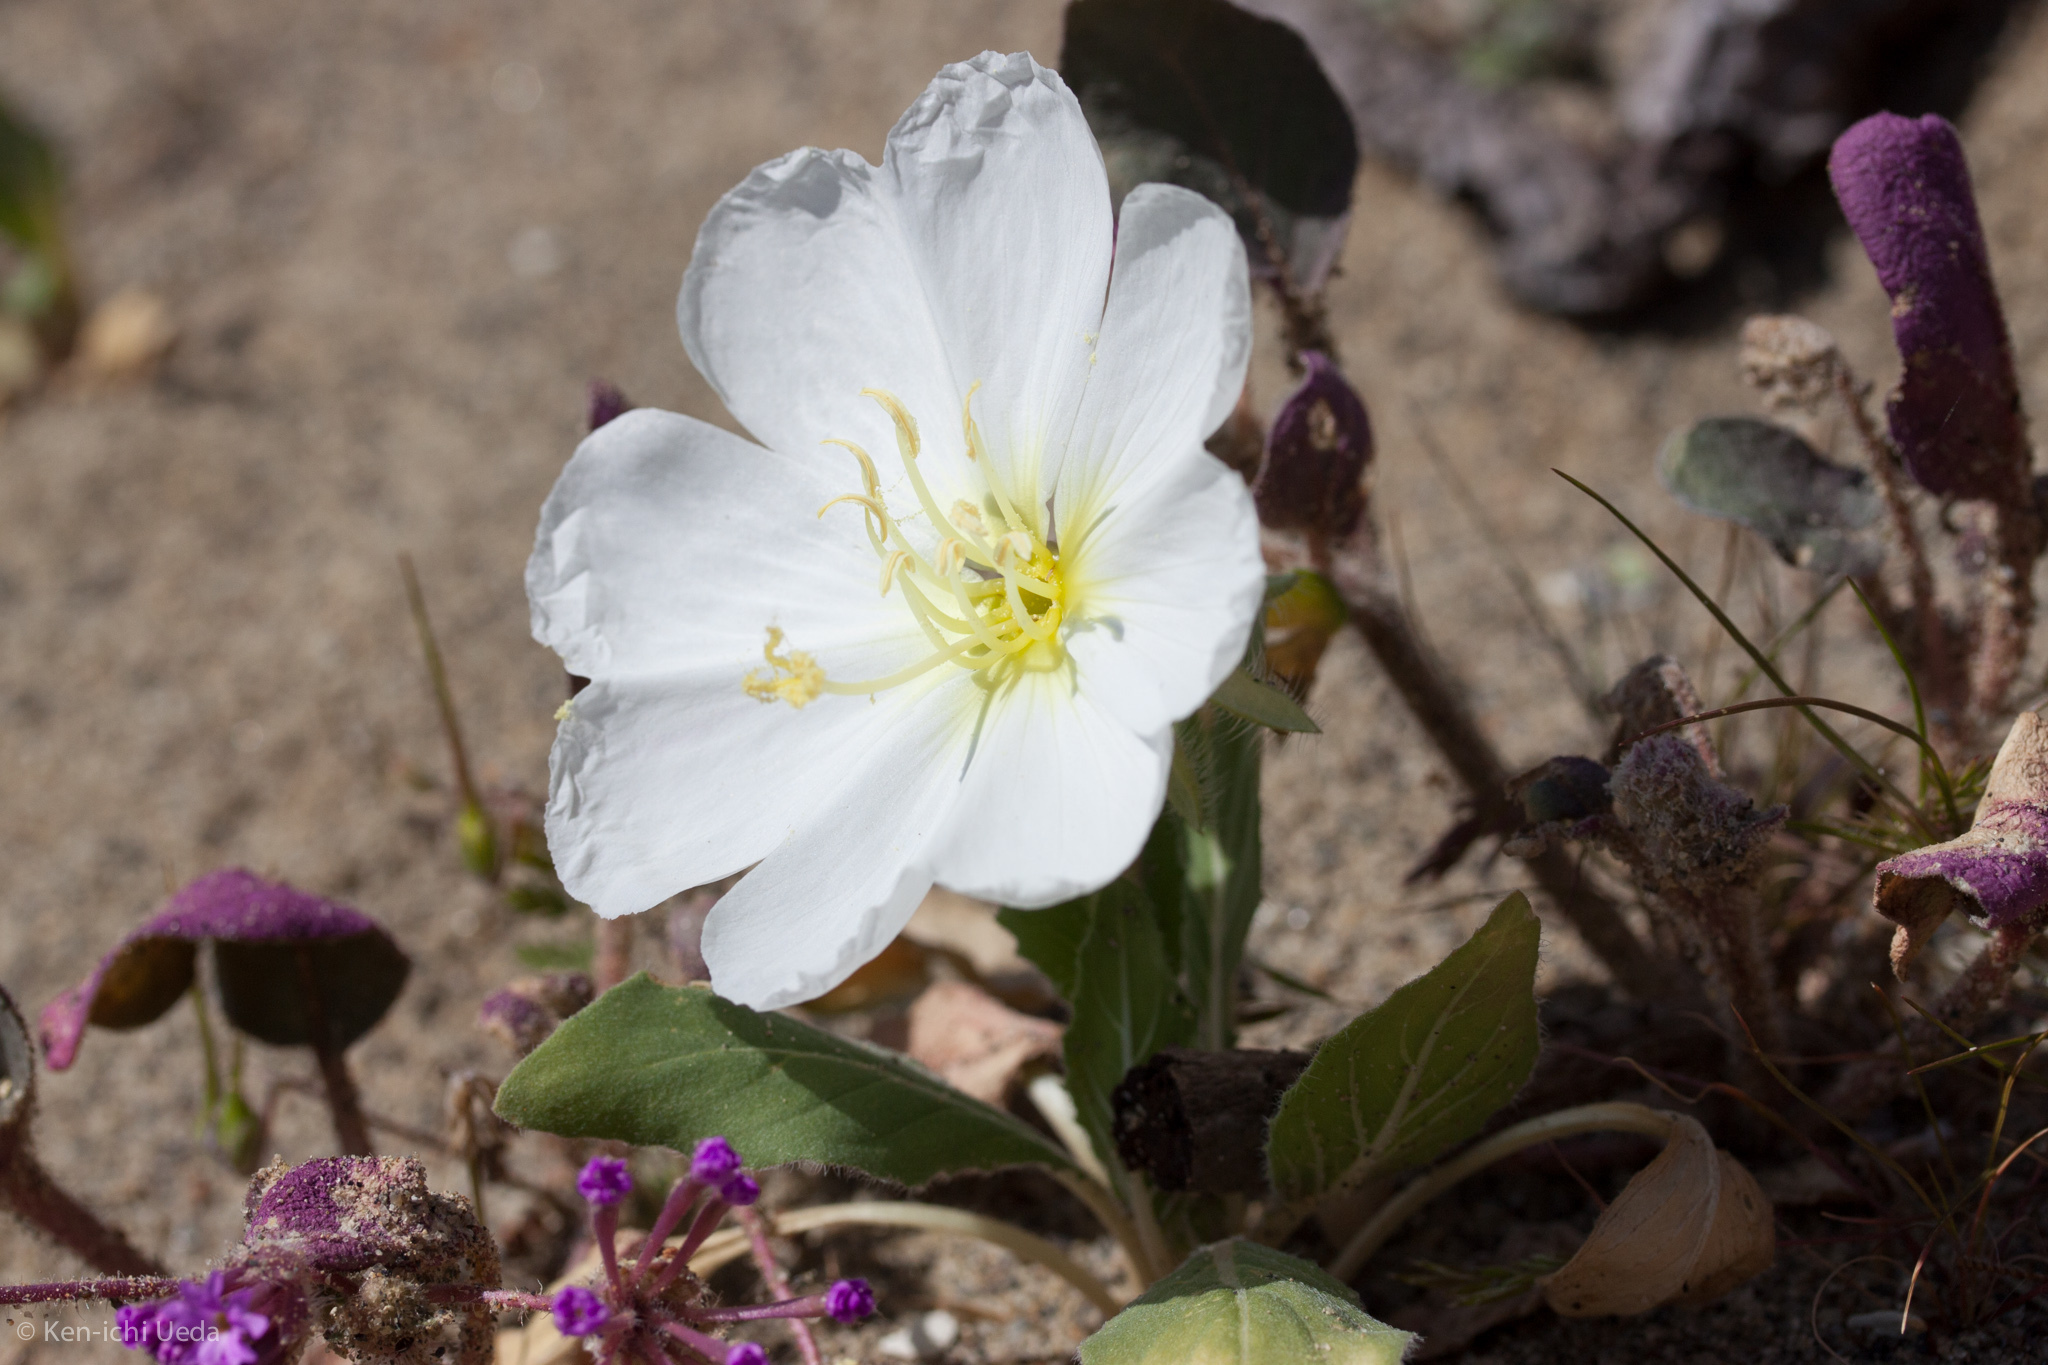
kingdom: Plantae
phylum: Tracheophyta
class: Magnoliopsida
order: Myrtales
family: Onagraceae
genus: Oenothera
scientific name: Oenothera deltoides
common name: Basket evening-primrose
